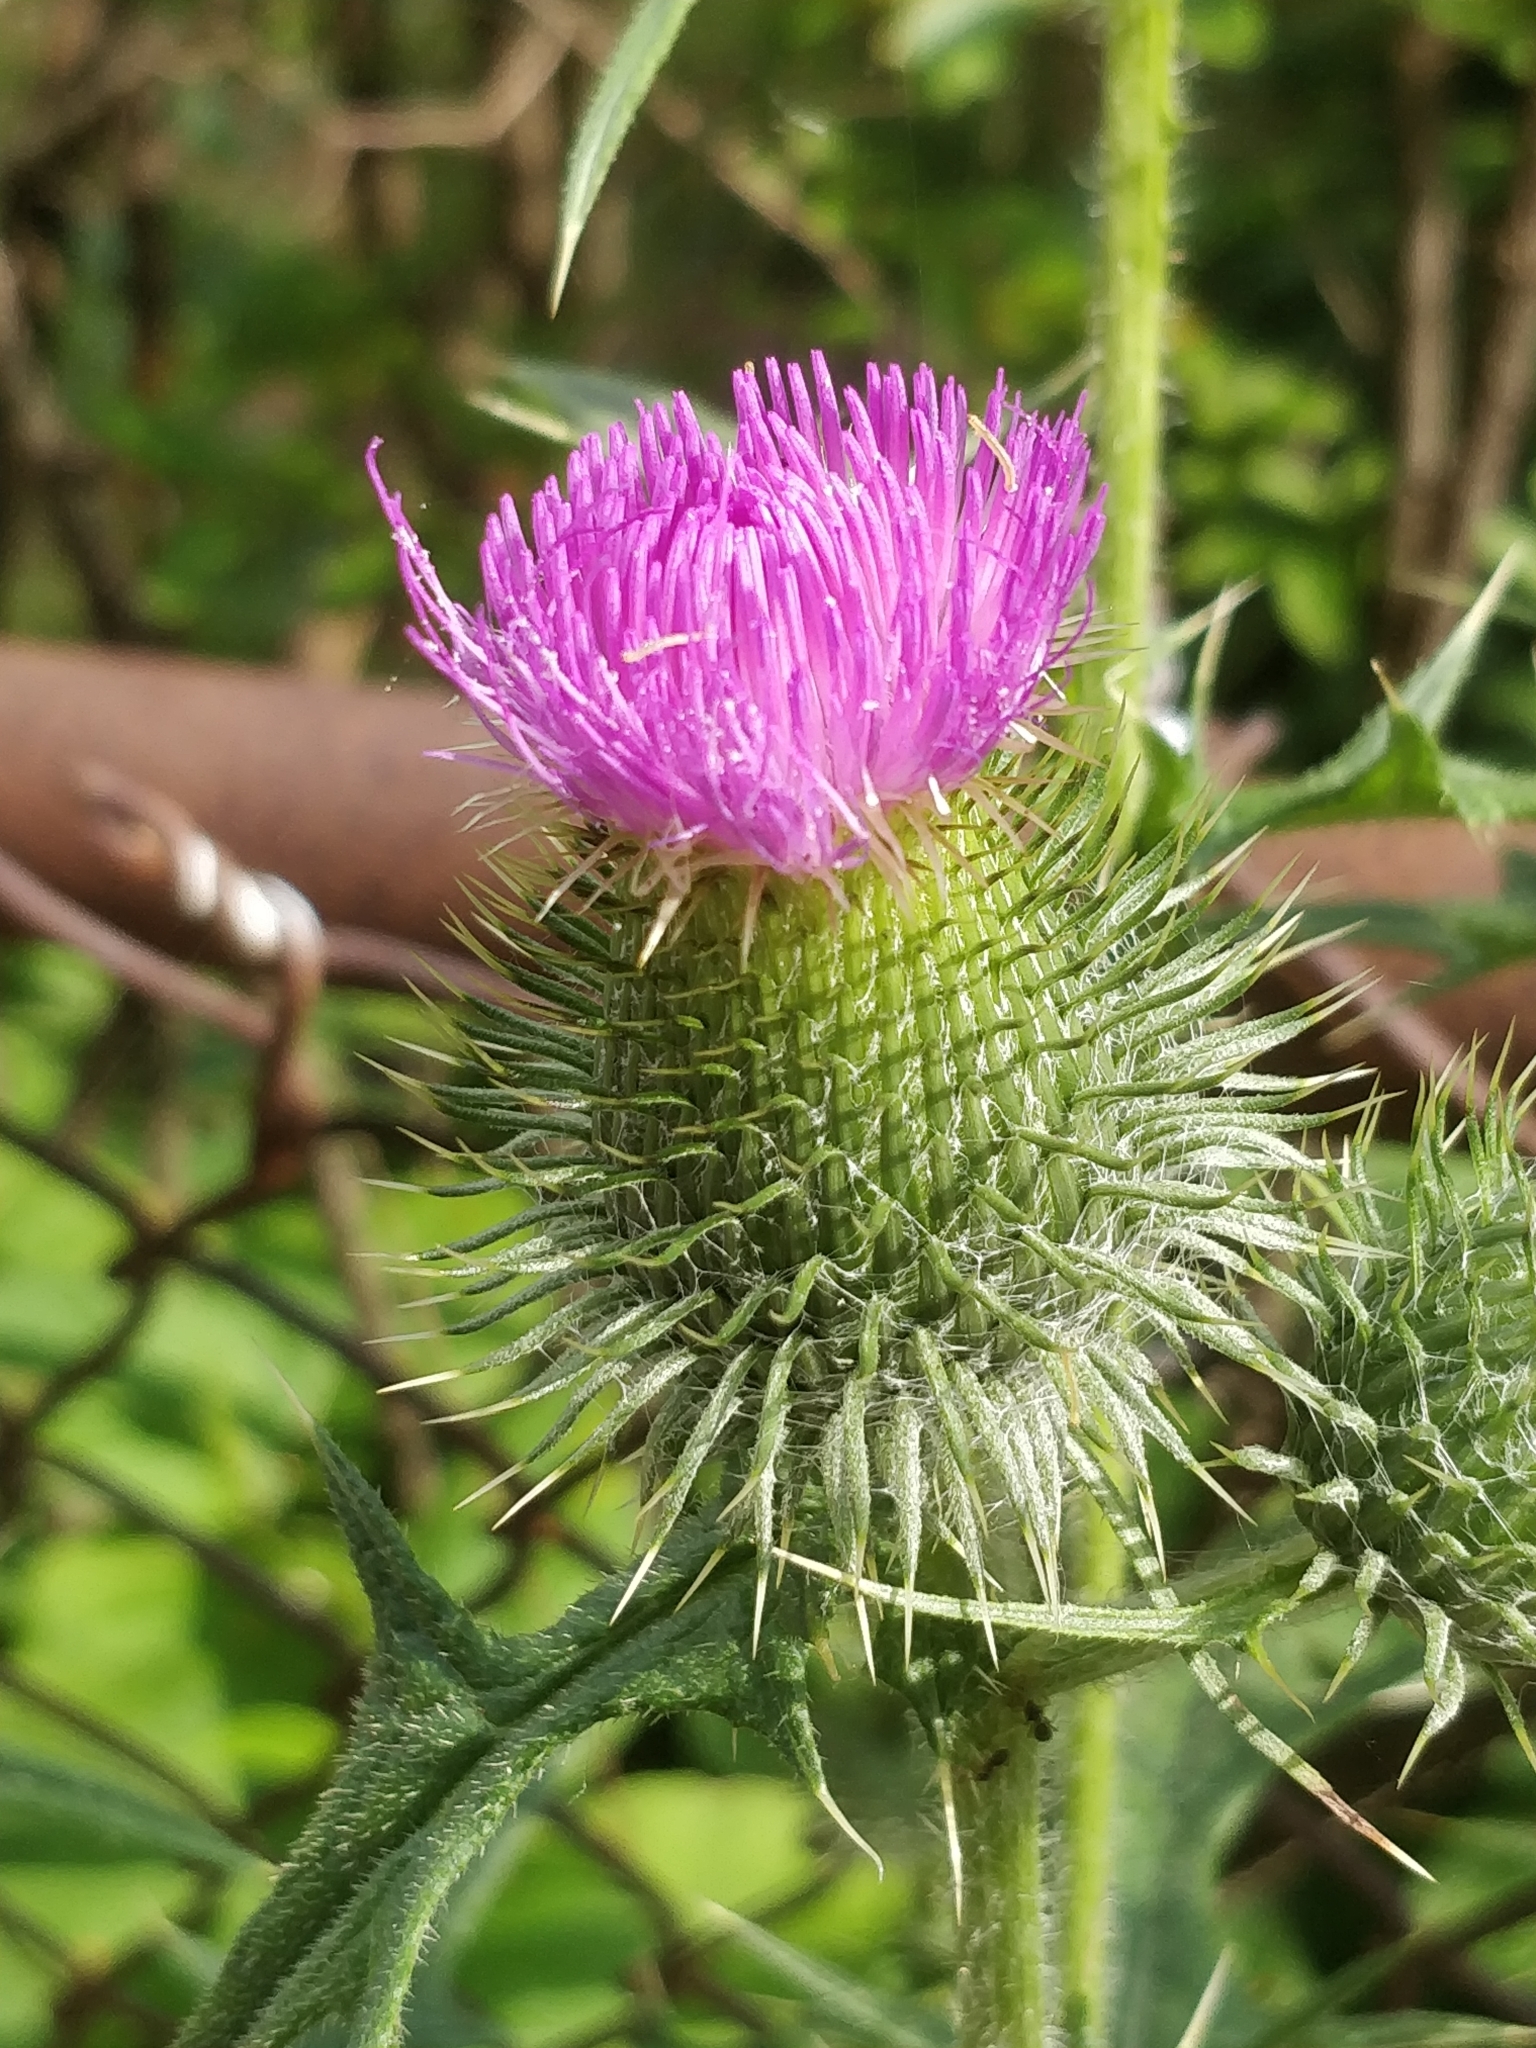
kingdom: Plantae
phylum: Tracheophyta
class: Magnoliopsida
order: Asterales
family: Asteraceae
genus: Cirsium
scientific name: Cirsium vulgare
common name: Bull thistle
